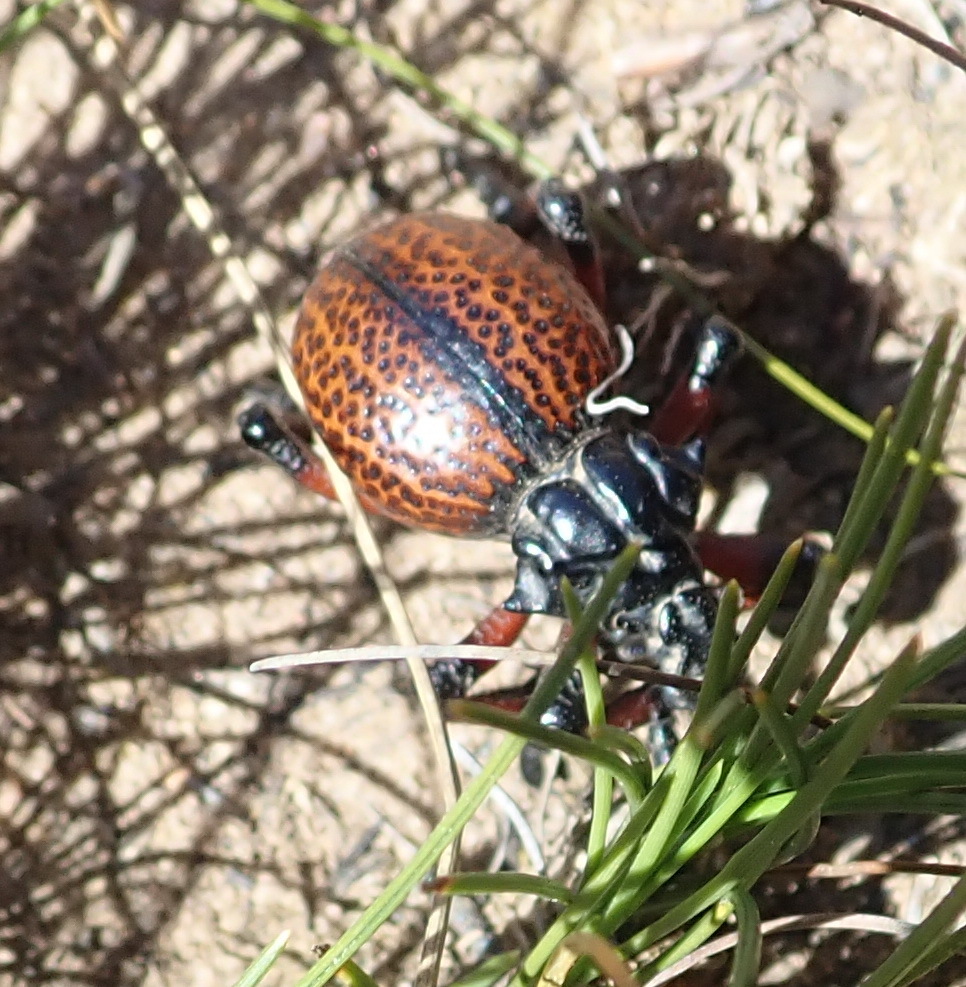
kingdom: Animalia
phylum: Arthropoda
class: Insecta
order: Coleoptera
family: Brachyceridae
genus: Brachycerus
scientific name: Brachycerus obesus
